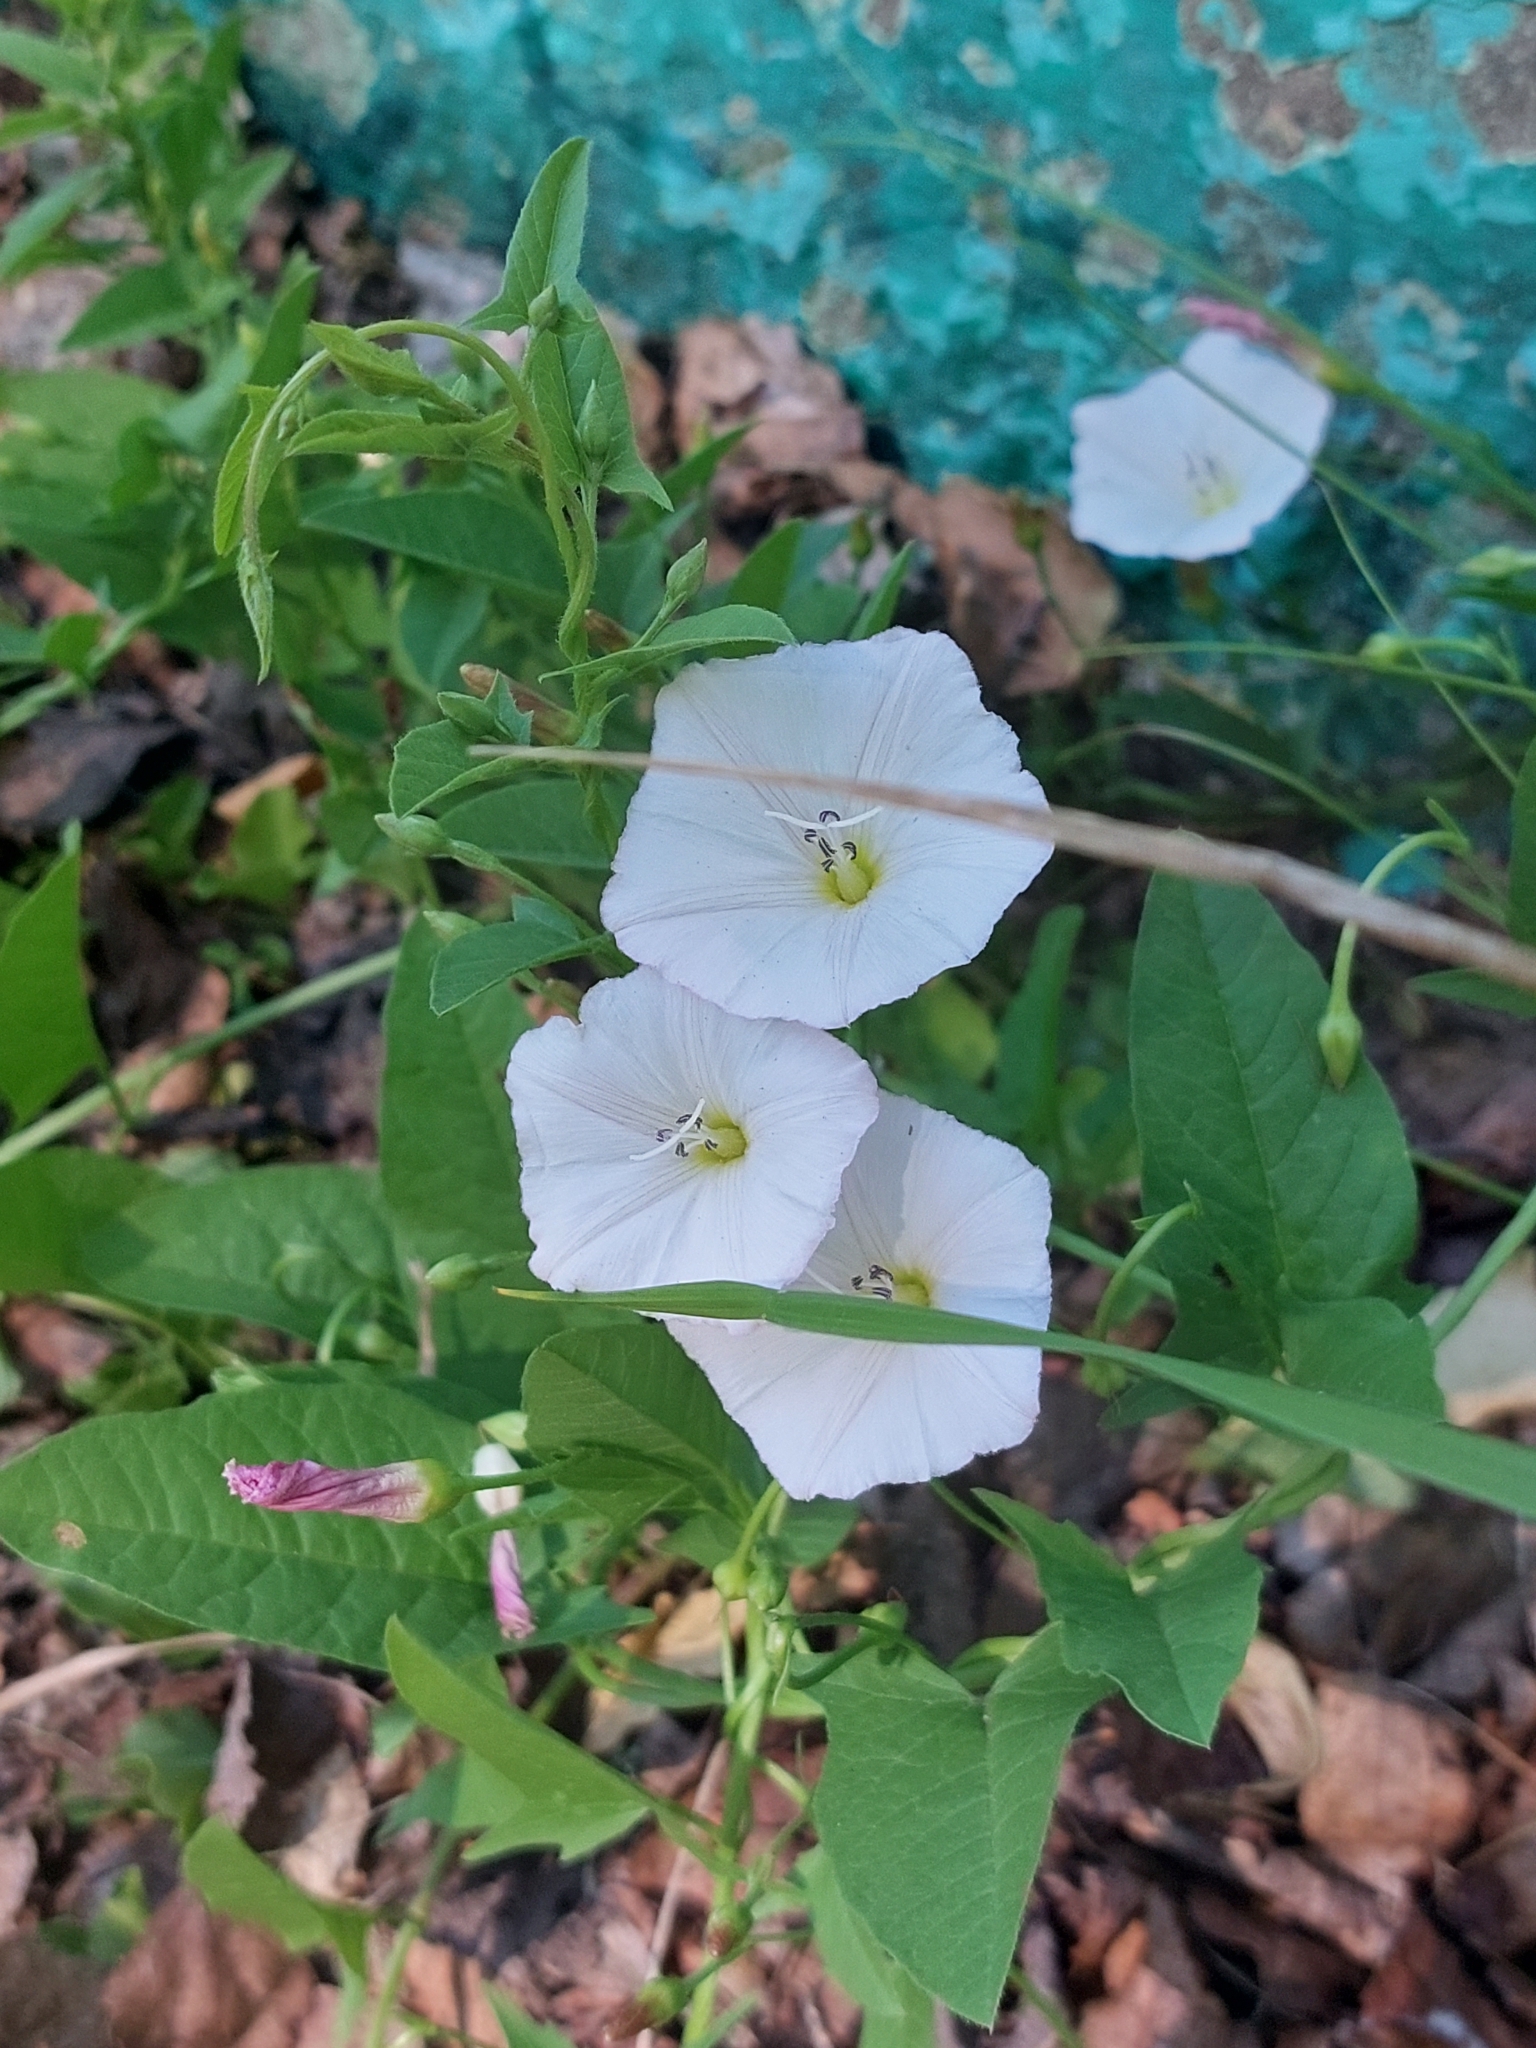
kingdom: Plantae
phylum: Tracheophyta
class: Magnoliopsida
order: Solanales
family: Convolvulaceae
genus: Convolvulus
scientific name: Convolvulus arvensis
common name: Field bindweed
